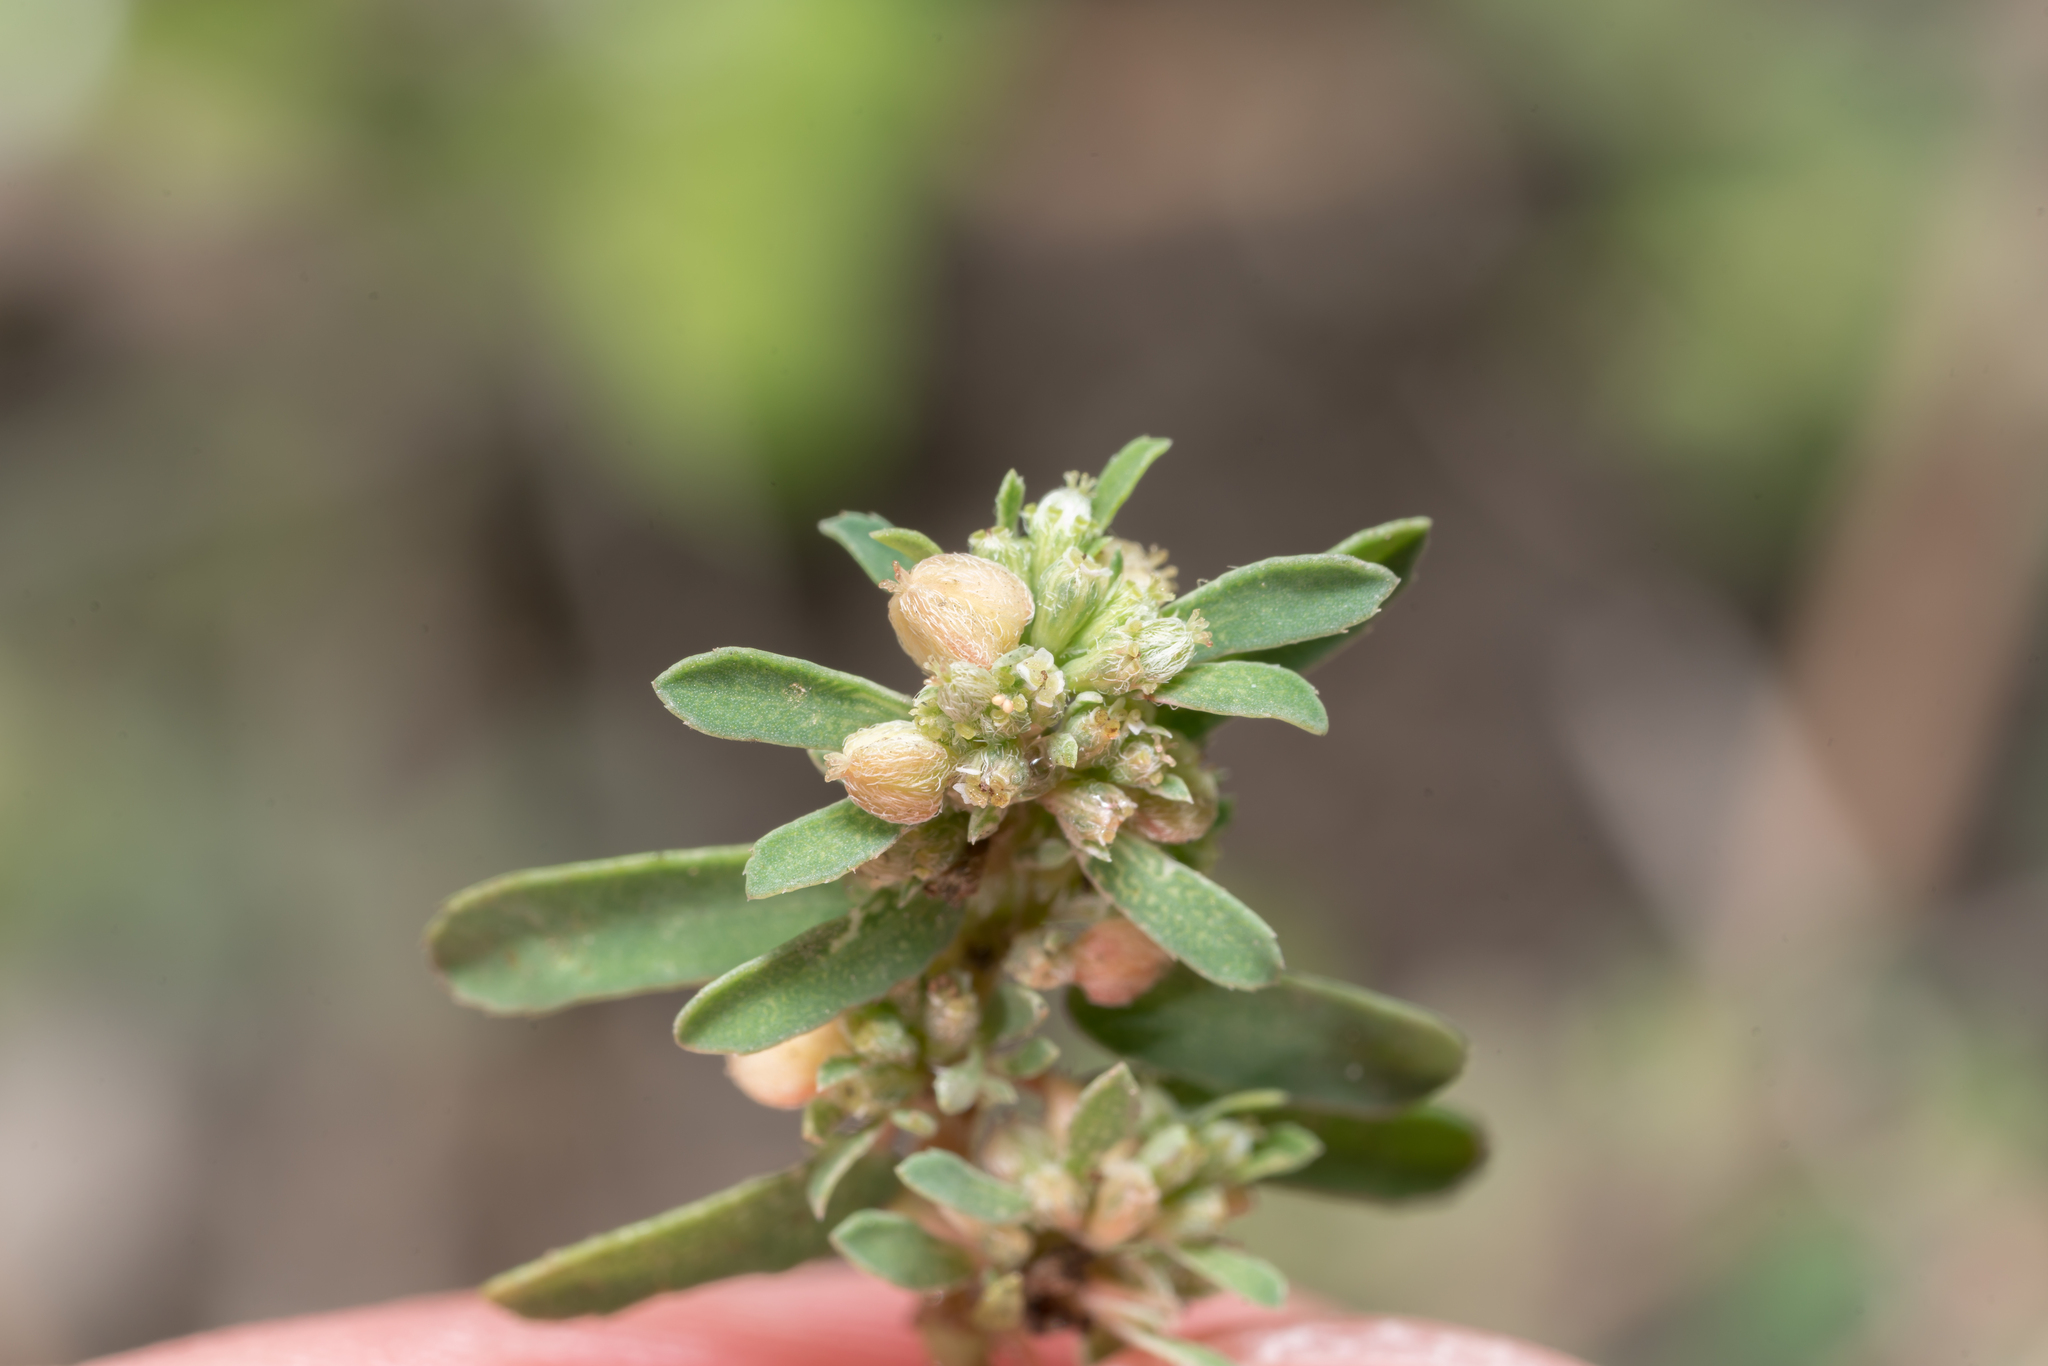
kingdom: Plantae
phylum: Tracheophyta
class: Magnoliopsida
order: Malpighiales
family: Euphorbiaceae
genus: Euphorbia
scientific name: Euphorbia maculata
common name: Spotted spurge
